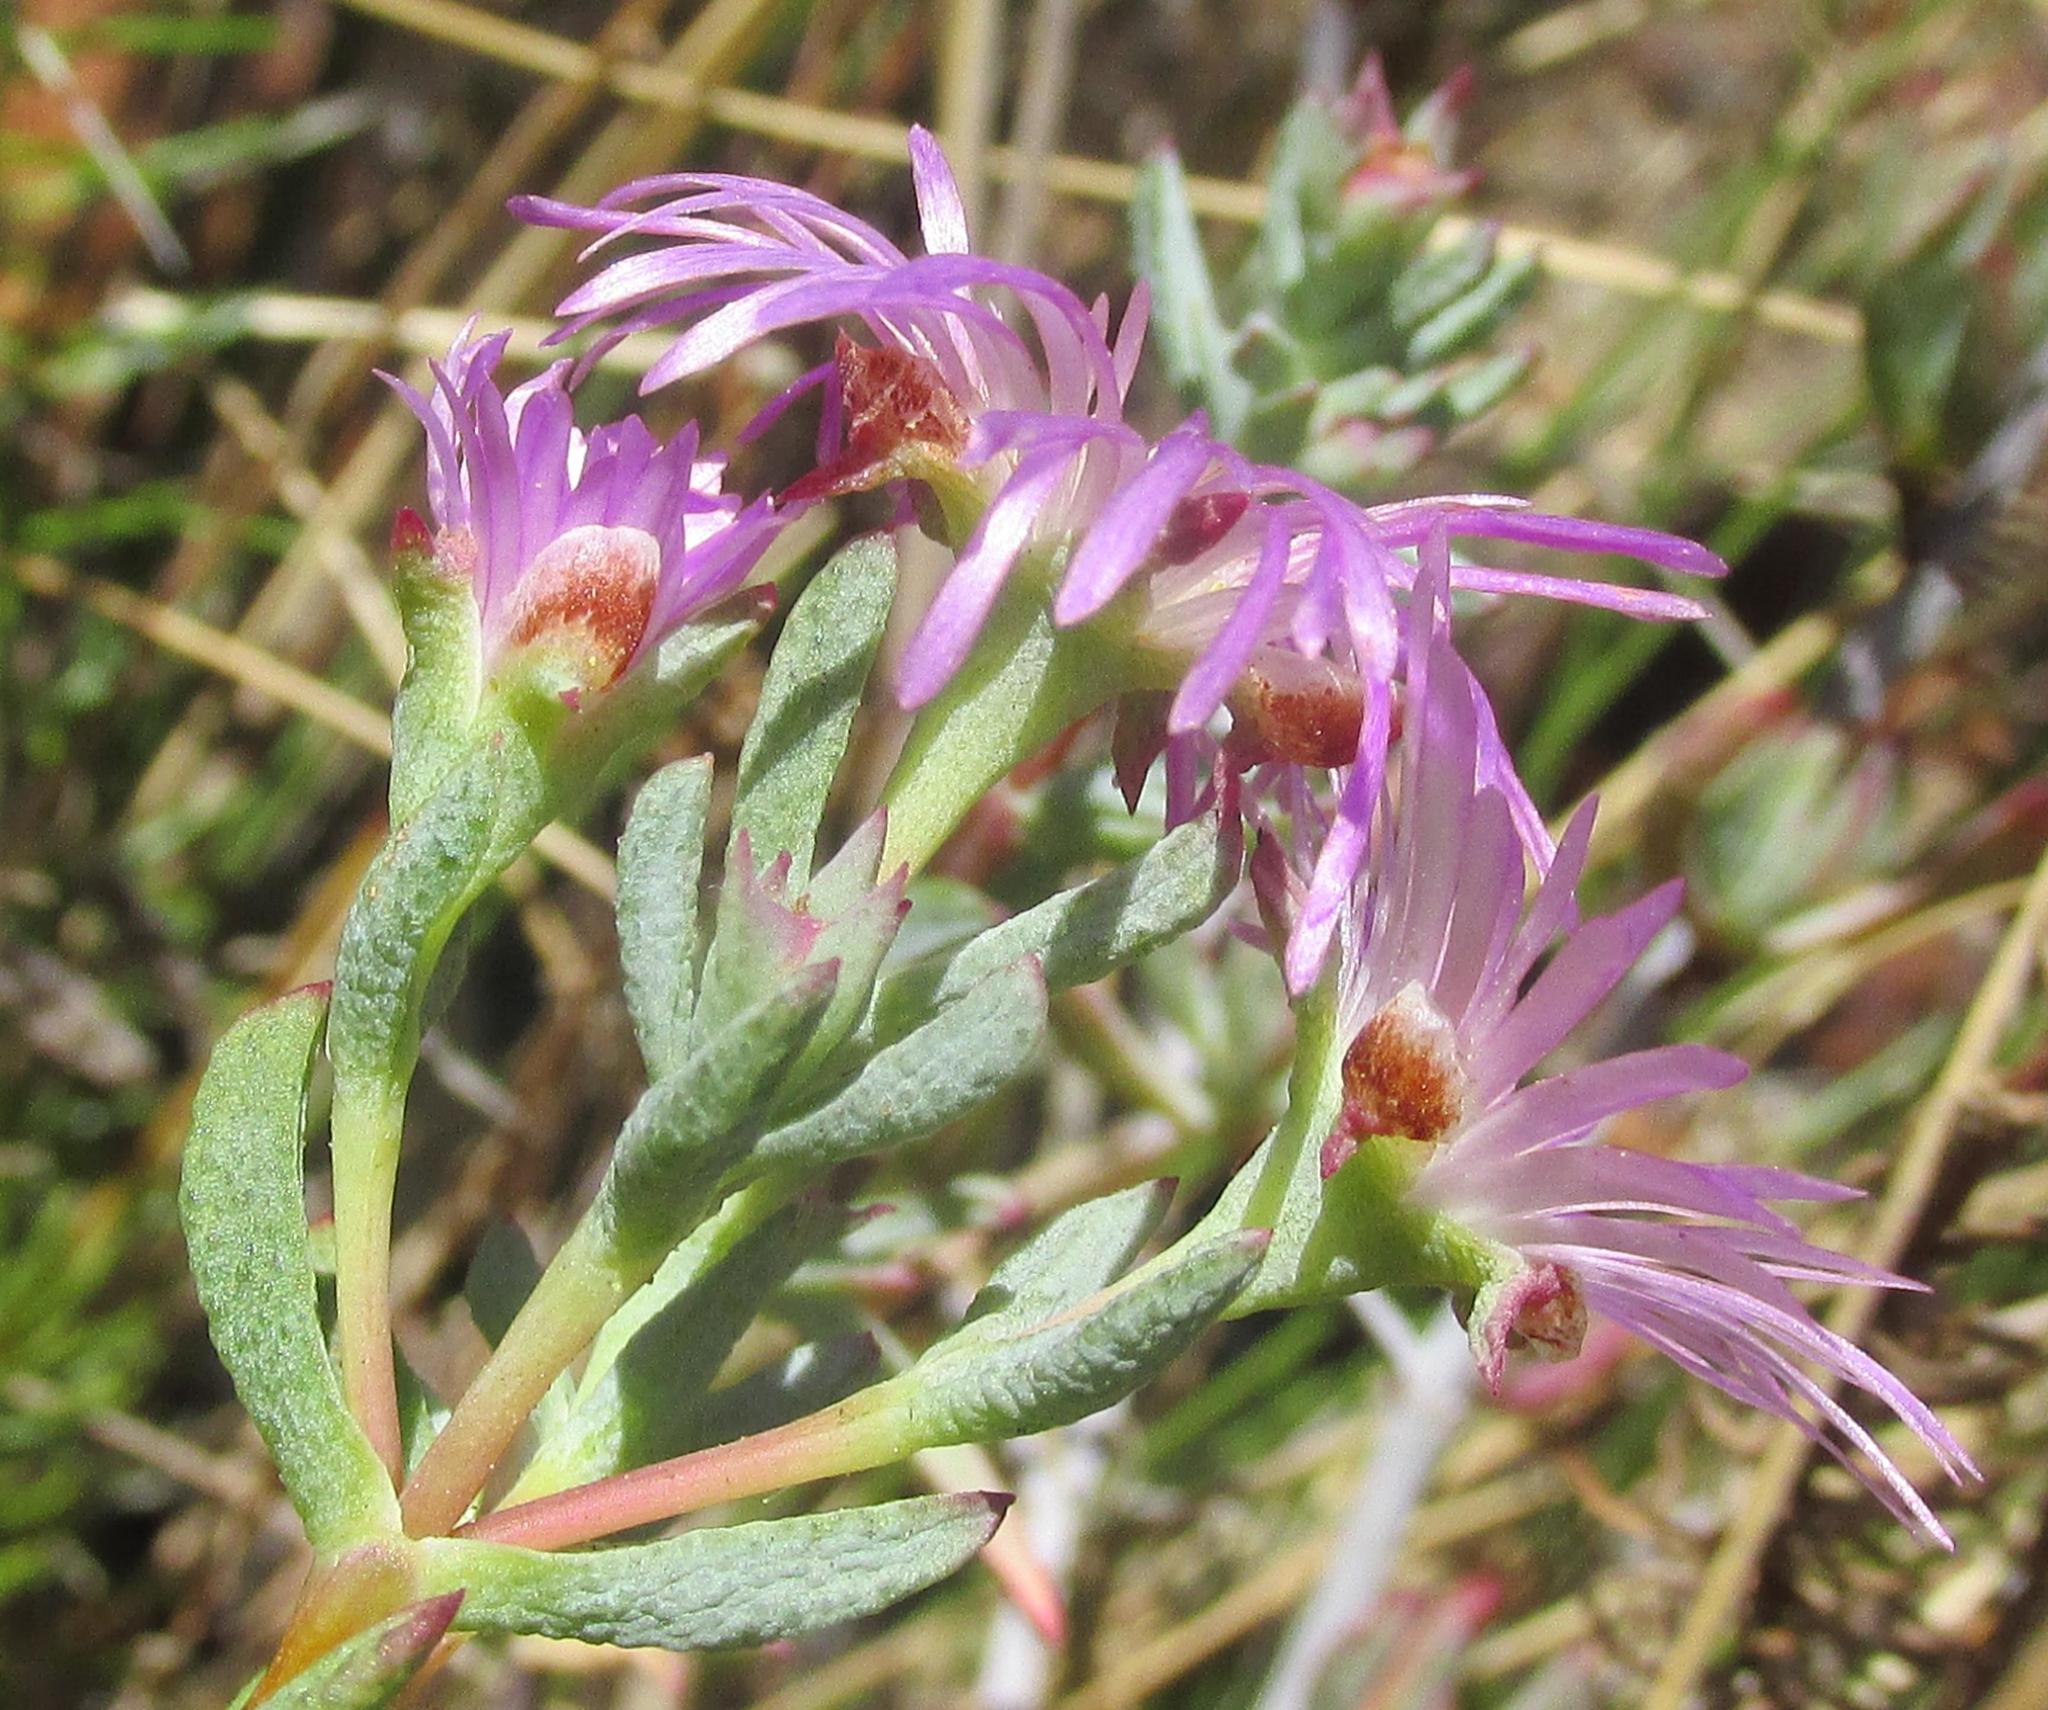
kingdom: Plantae
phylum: Tracheophyta
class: Magnoliopsida
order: Caryophyllales
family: Aizoaceae
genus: Lampranthus
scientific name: Lampranthus emarginatus
